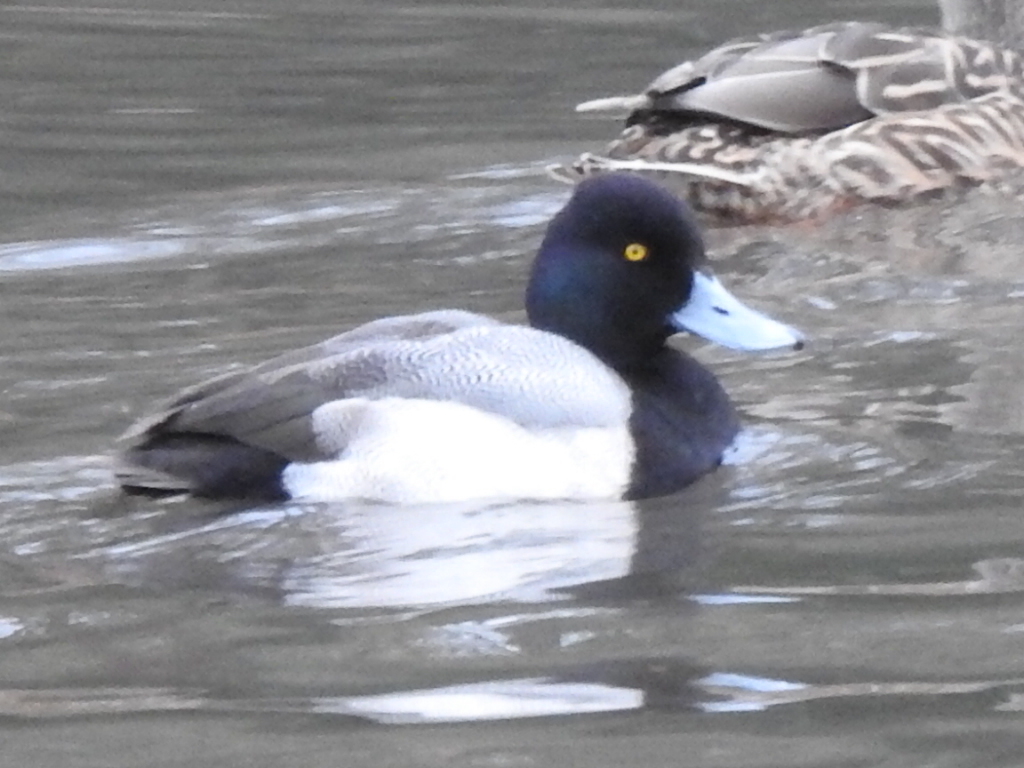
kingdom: Animalia
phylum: Chordata
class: Aves
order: Anseriformes
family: Anatidae
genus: Aythya
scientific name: Aythya affinis
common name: Lesser scaup
